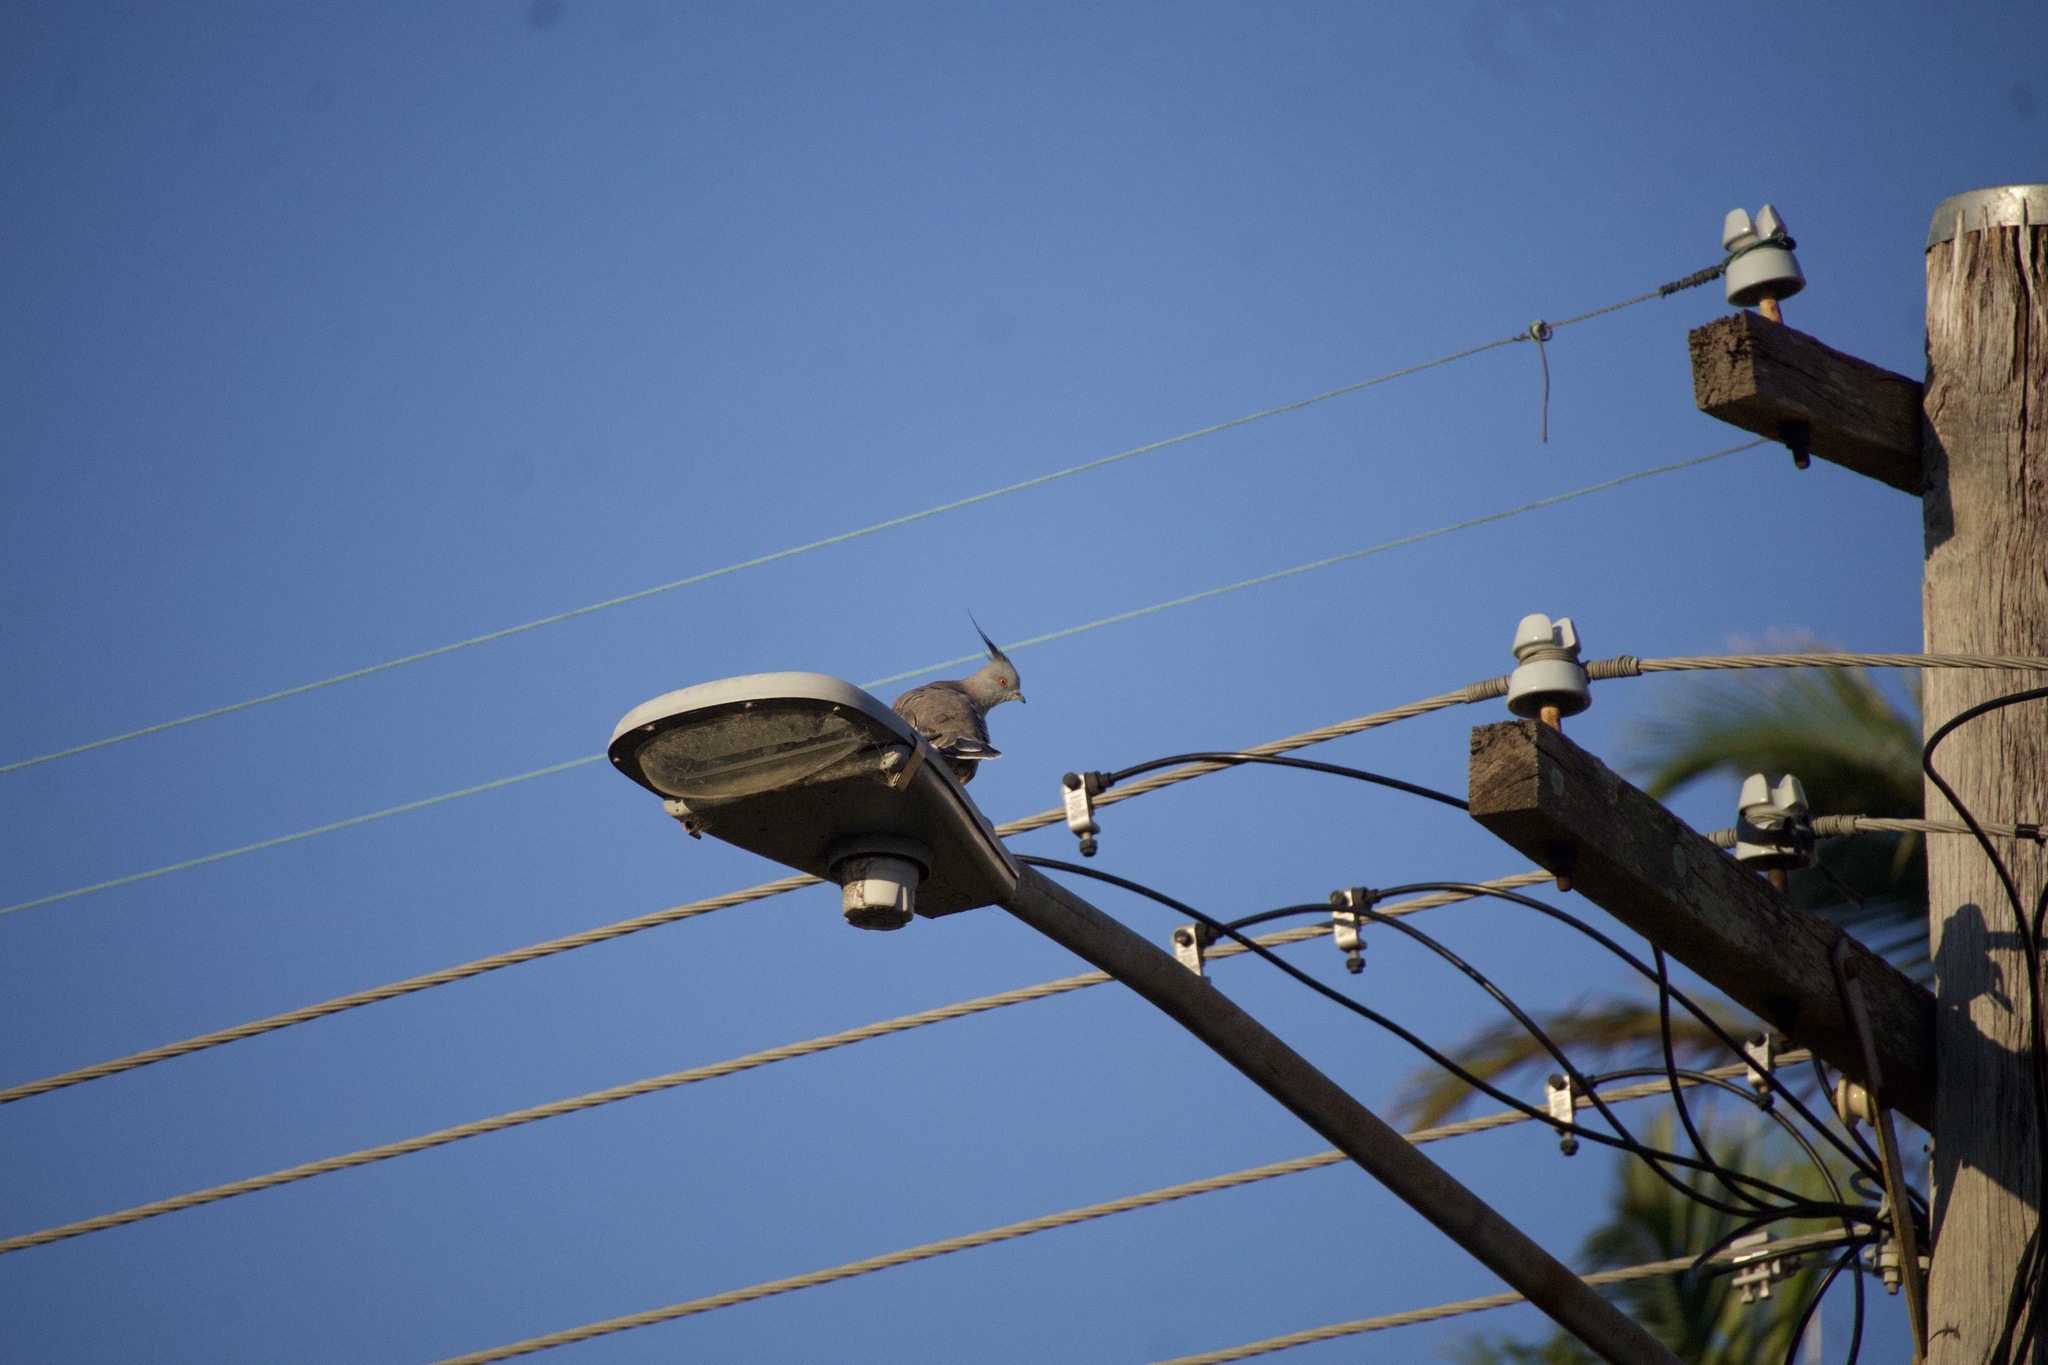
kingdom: Animalia
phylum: Chordata
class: Aves
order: Columbiformes
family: Columbidae
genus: Ocyphaps
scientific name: Ocyphaps lophotes
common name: Crested pigeon
